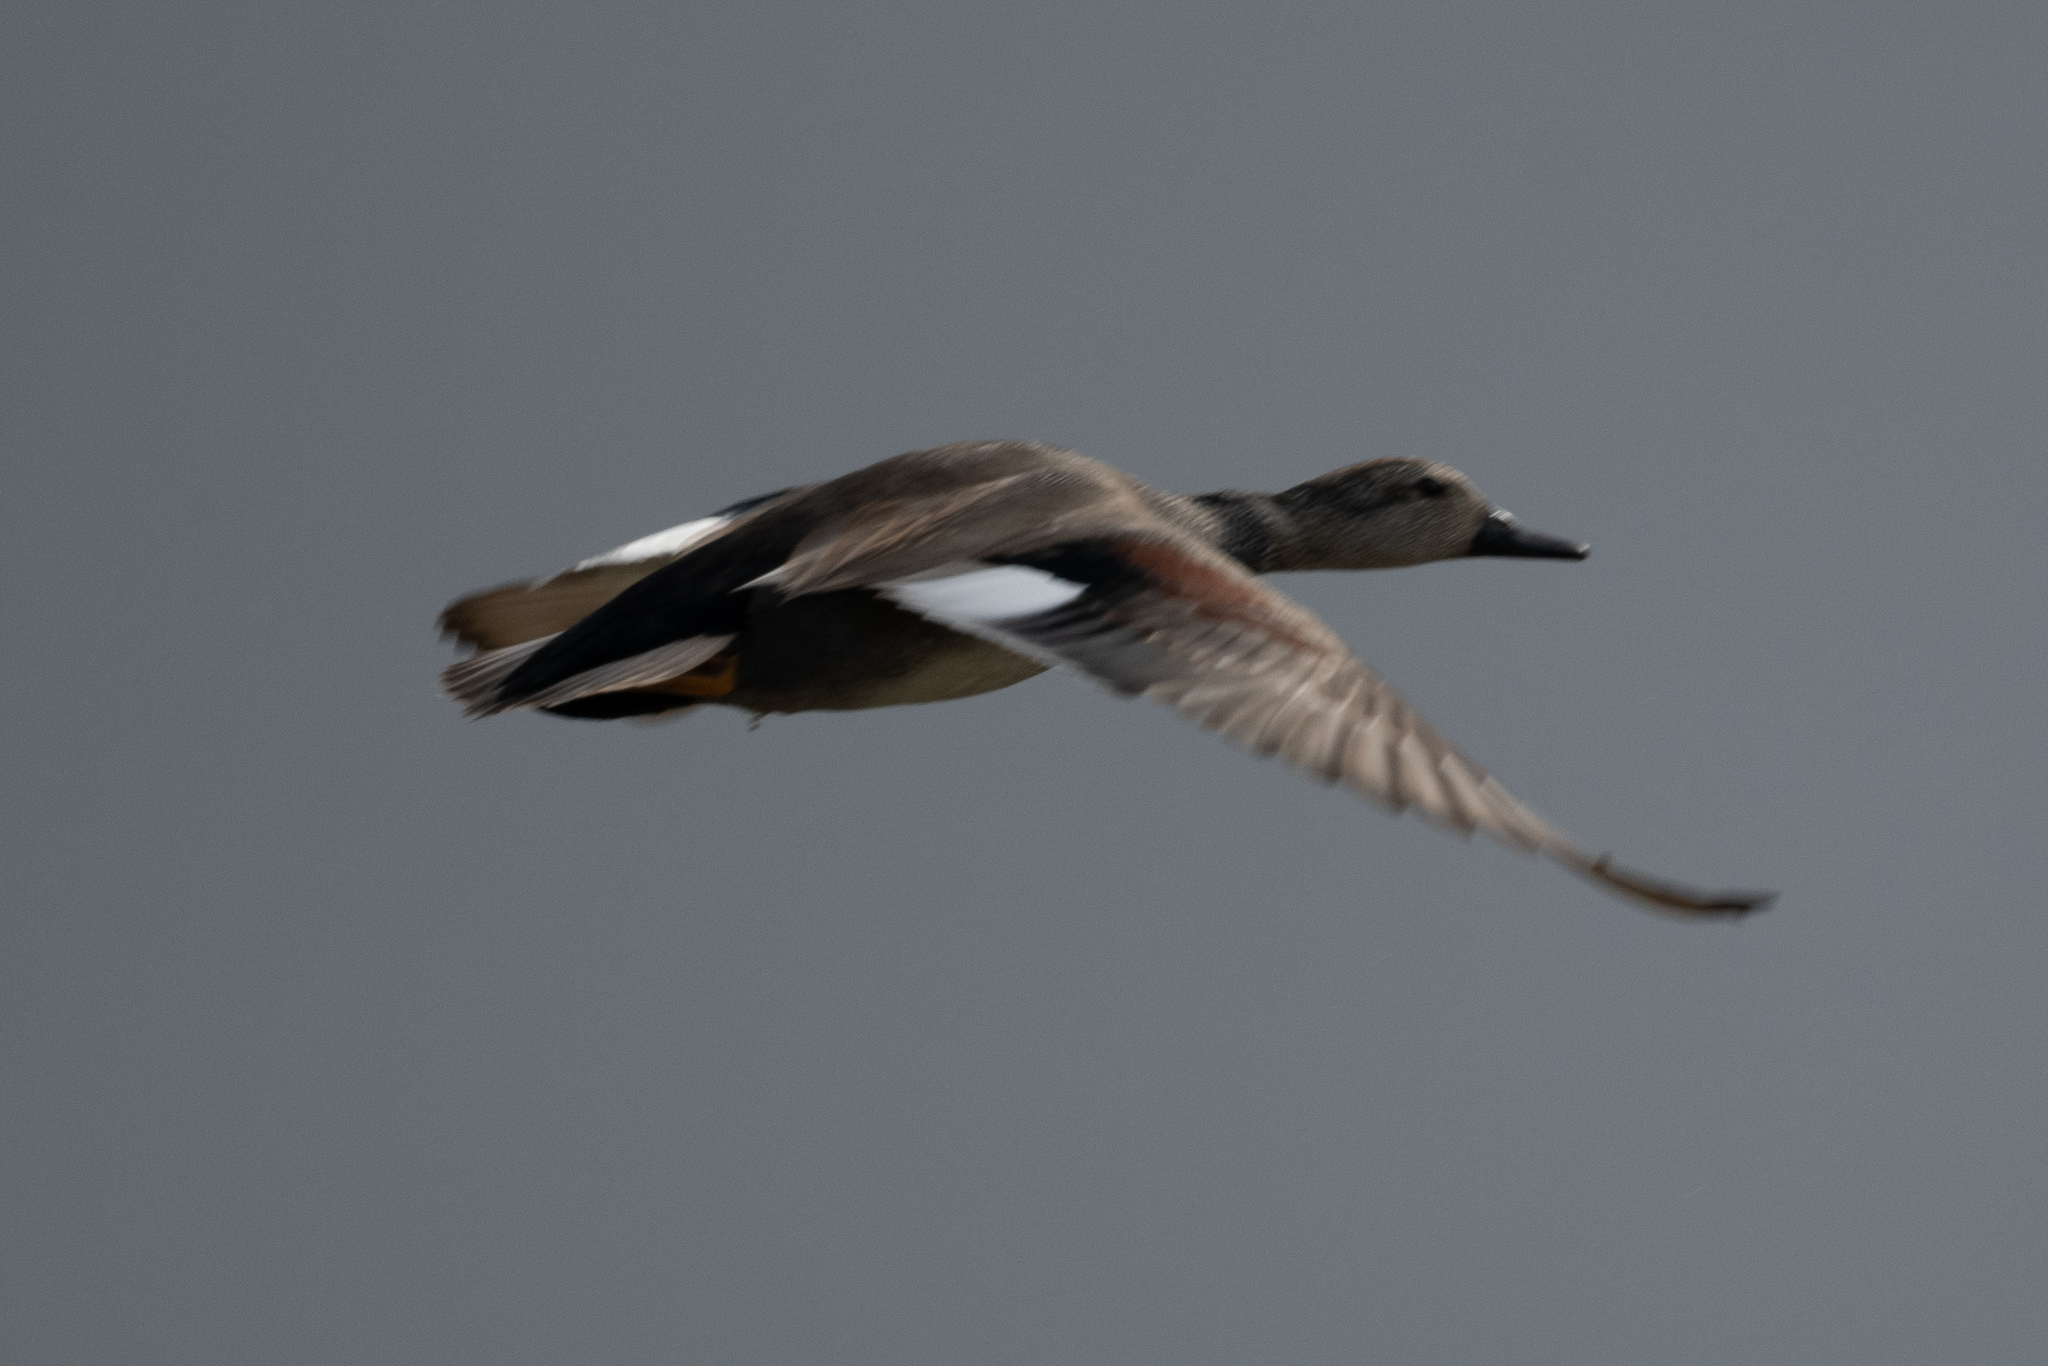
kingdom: Animalia
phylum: Chordata
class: Aves
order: Anseriformes
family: Anatidae
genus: Mareca
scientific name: Mareca strepera
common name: Gadwall
